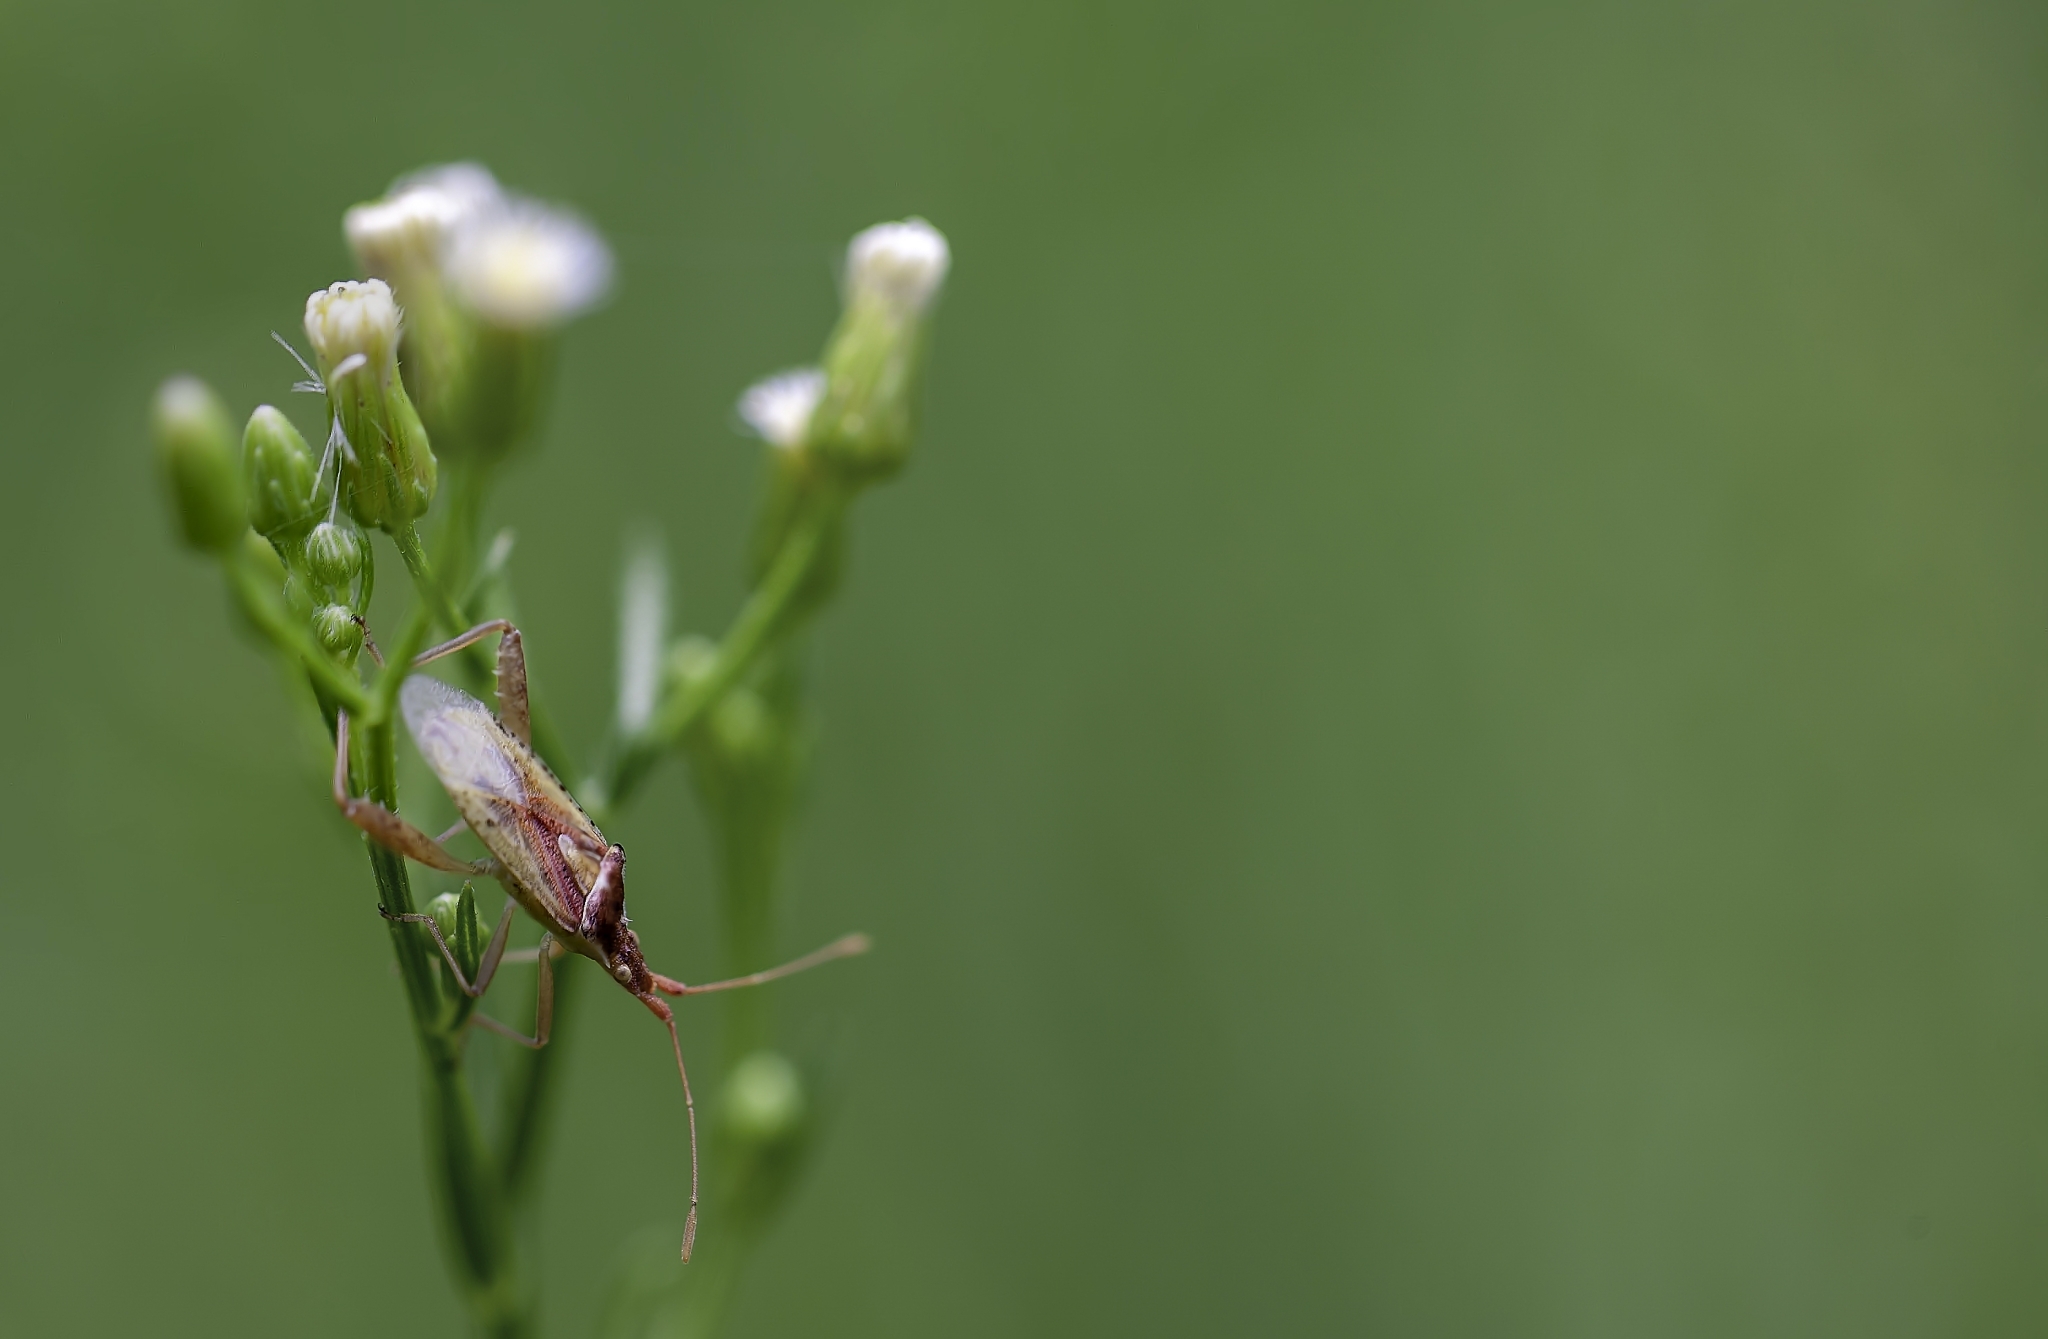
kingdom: Animalia
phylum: Arthropoda
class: Insecta
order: Hemiptera
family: Rhopalidae
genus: Harmostes
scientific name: Harmostes reflexulus
